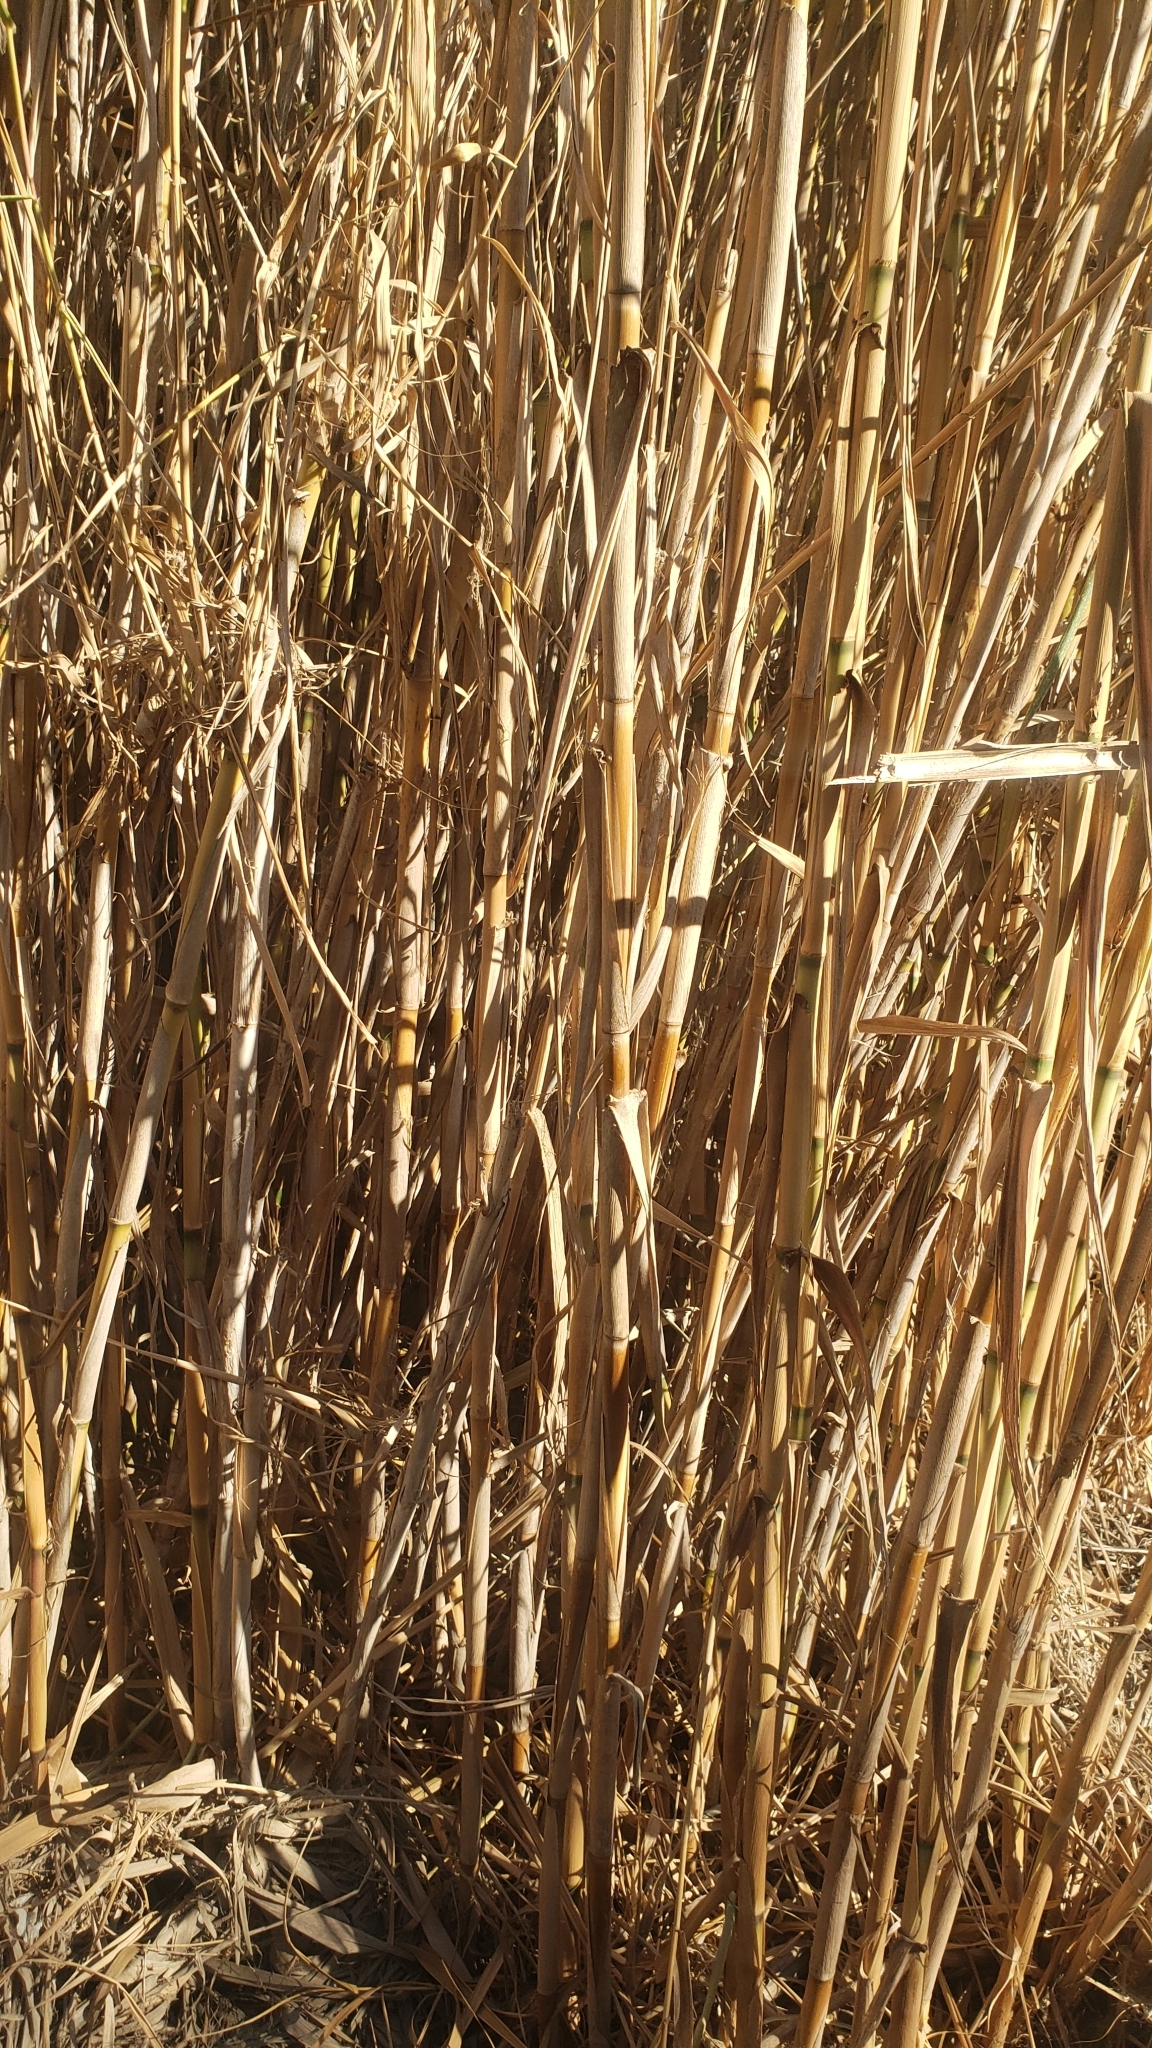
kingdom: Plantae
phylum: Tracheophyta
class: Liliopsida
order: Poales
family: Poaceae
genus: Arundo
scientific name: Arundo donax
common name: Giant reed
